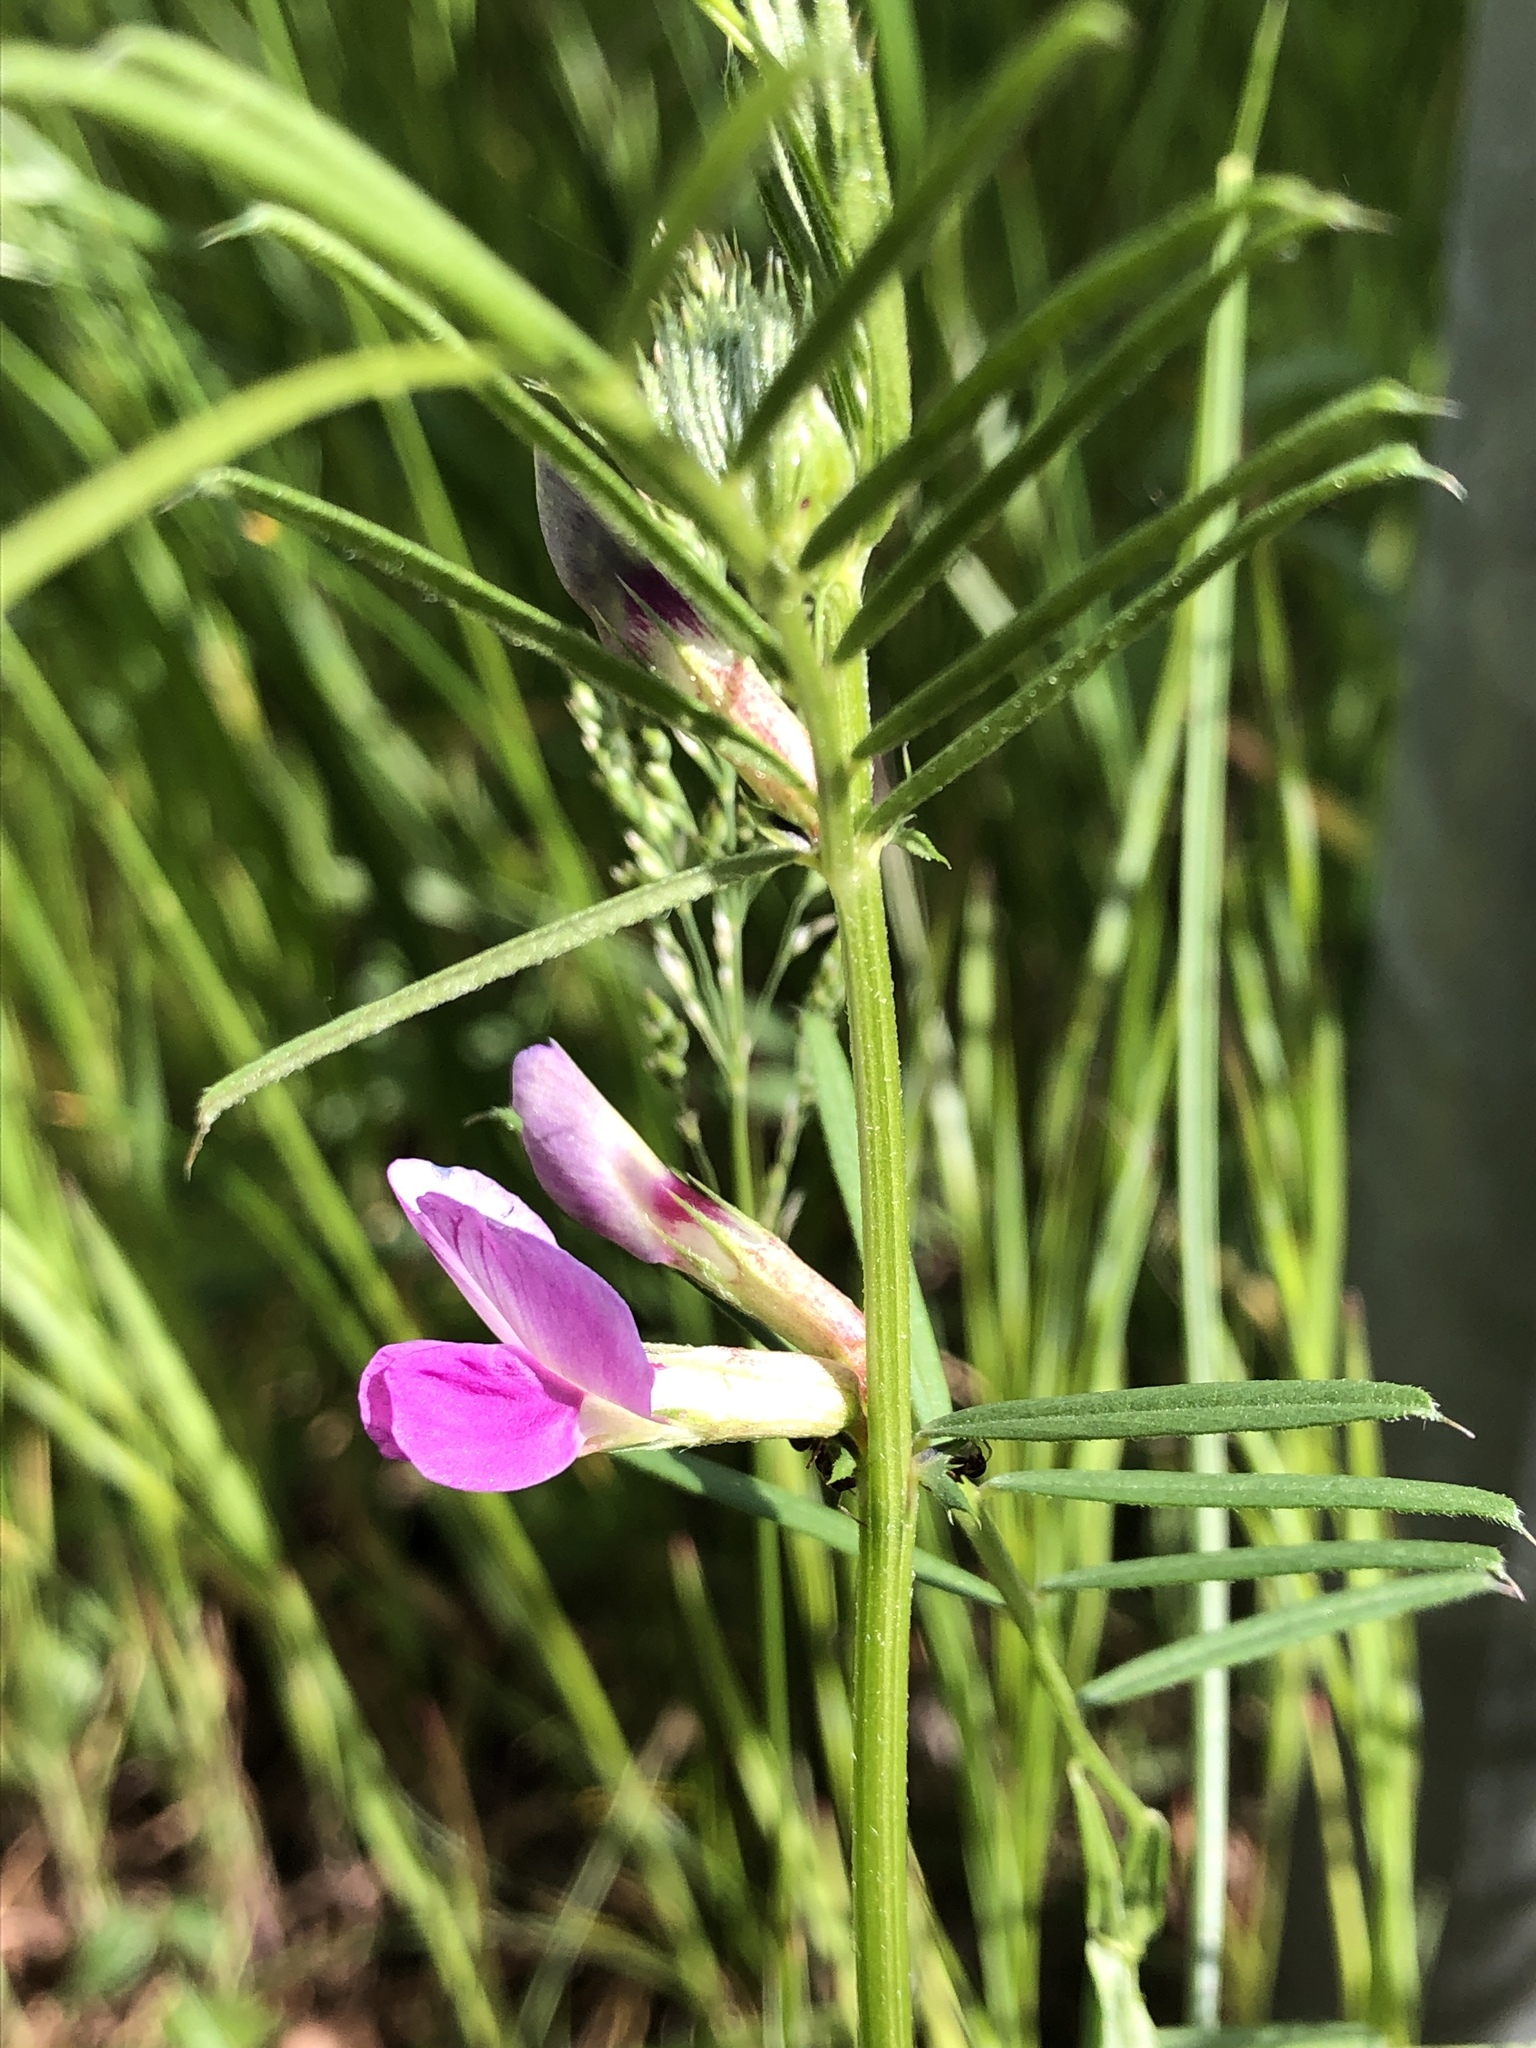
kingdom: Plantae
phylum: Tracheophyta
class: Magnoliopsida
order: Fabales
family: Fabaceae
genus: Vicia
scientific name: Vicia sativa
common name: Garden vetch
